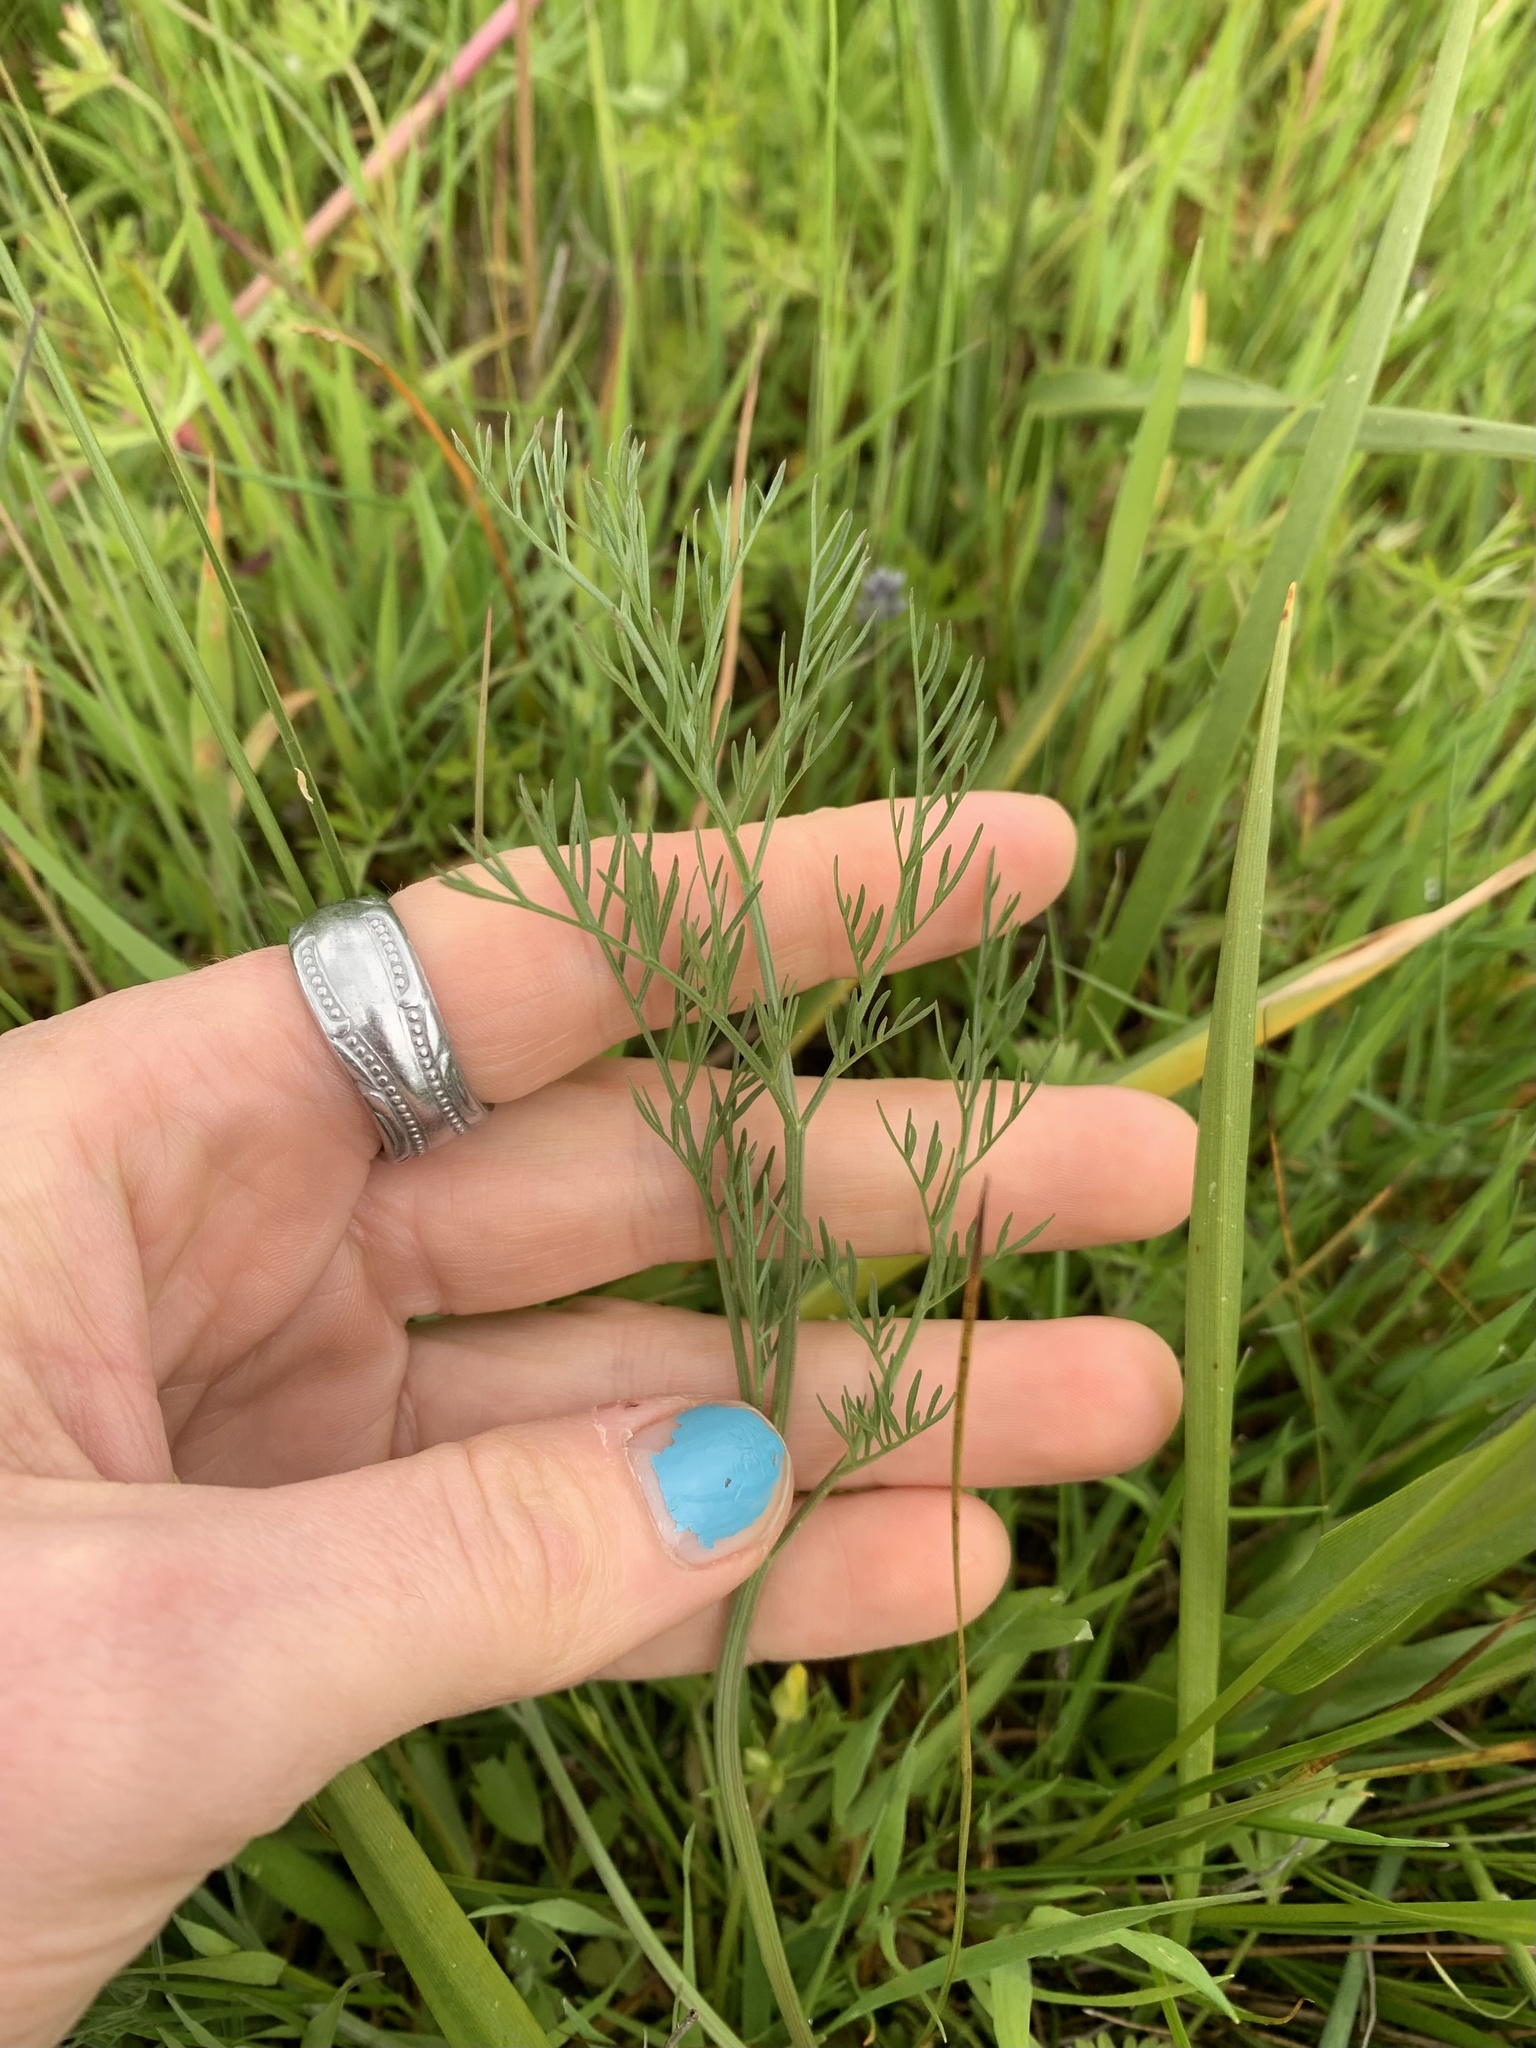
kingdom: Plantae
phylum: Tracheophyta
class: Magnoliopsida
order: Apiales
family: Apiaceae
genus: Lomatium
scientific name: Lomatium bradshawii
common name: Bradshaw's desert-parsley
